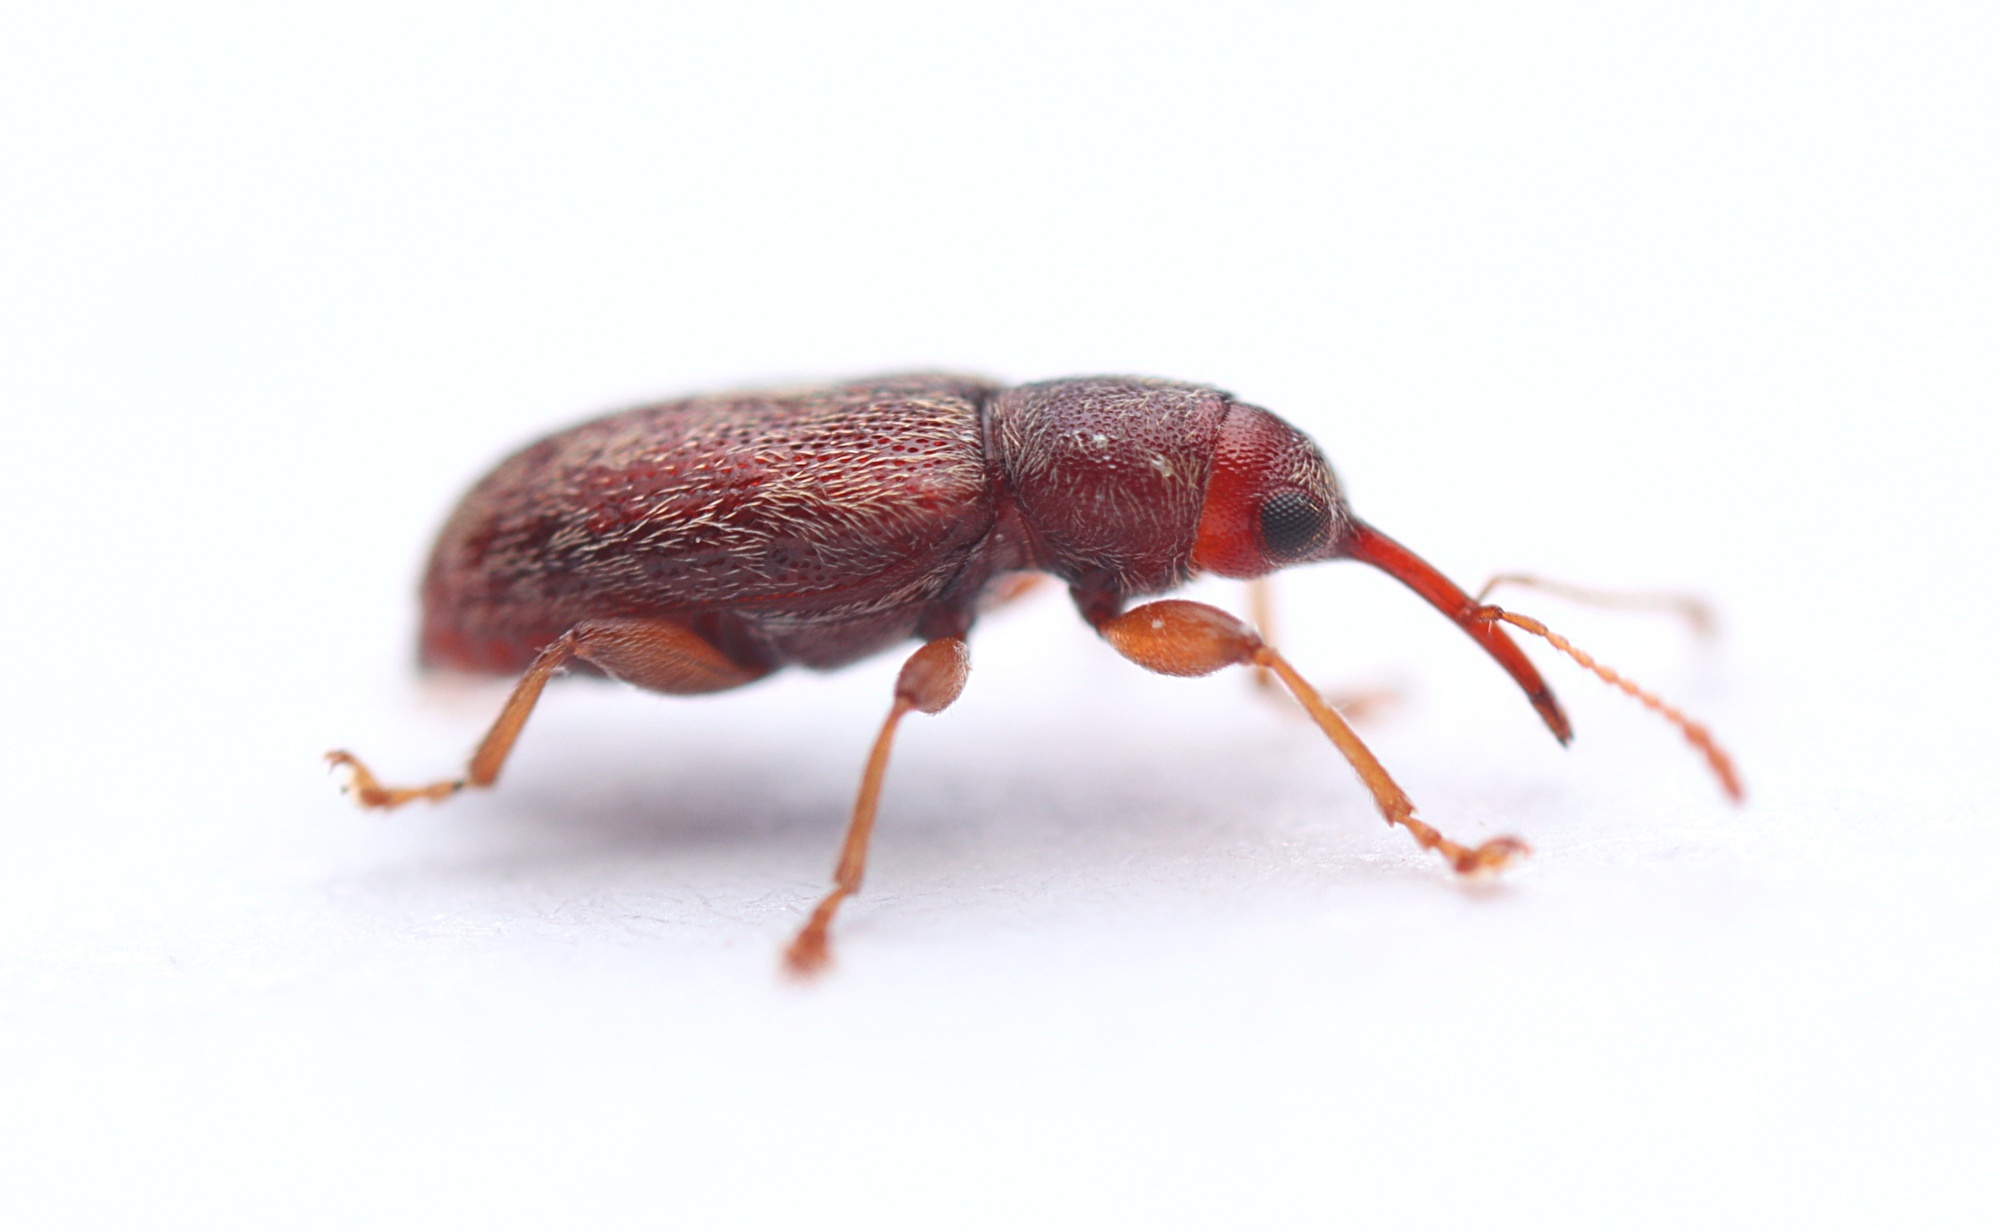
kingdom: Animalia
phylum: Arthropoda
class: Insecta
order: Coleoptera
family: Nemonychidae
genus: Rhinorhynchus
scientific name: Rhinorhynchus rufulus
